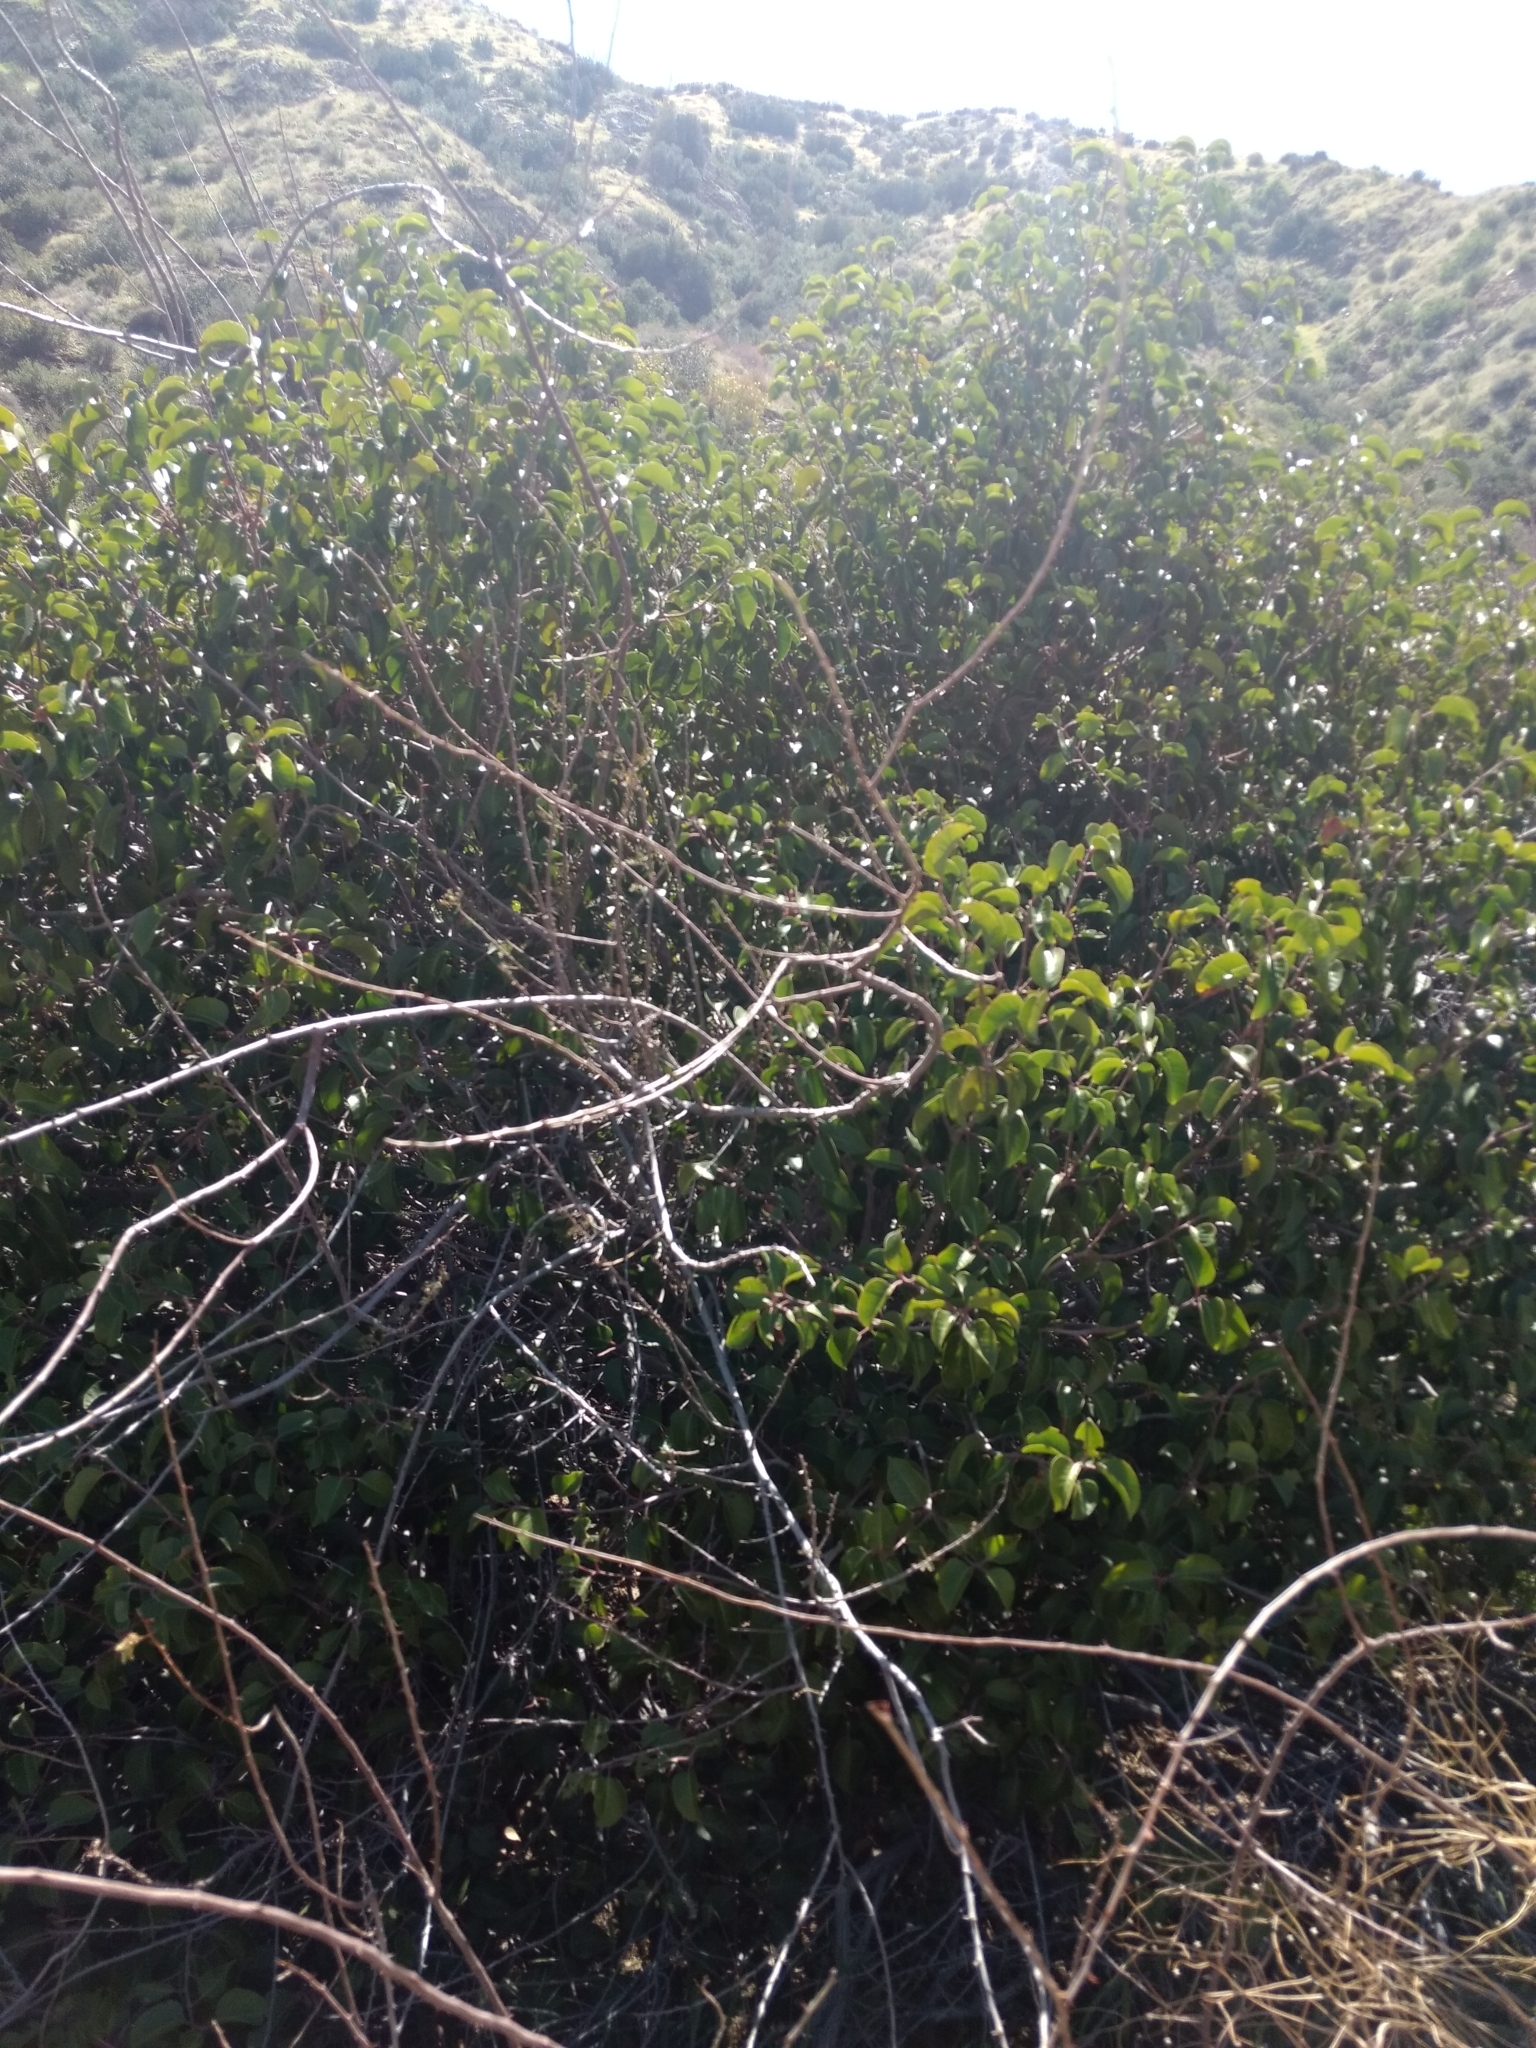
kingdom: Plantae
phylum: Tracheophyta
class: Magnoliopsida
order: Sapindales
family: Anacardiaceae
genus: Rhus
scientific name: Rhus ovata
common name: Sugar sumac
